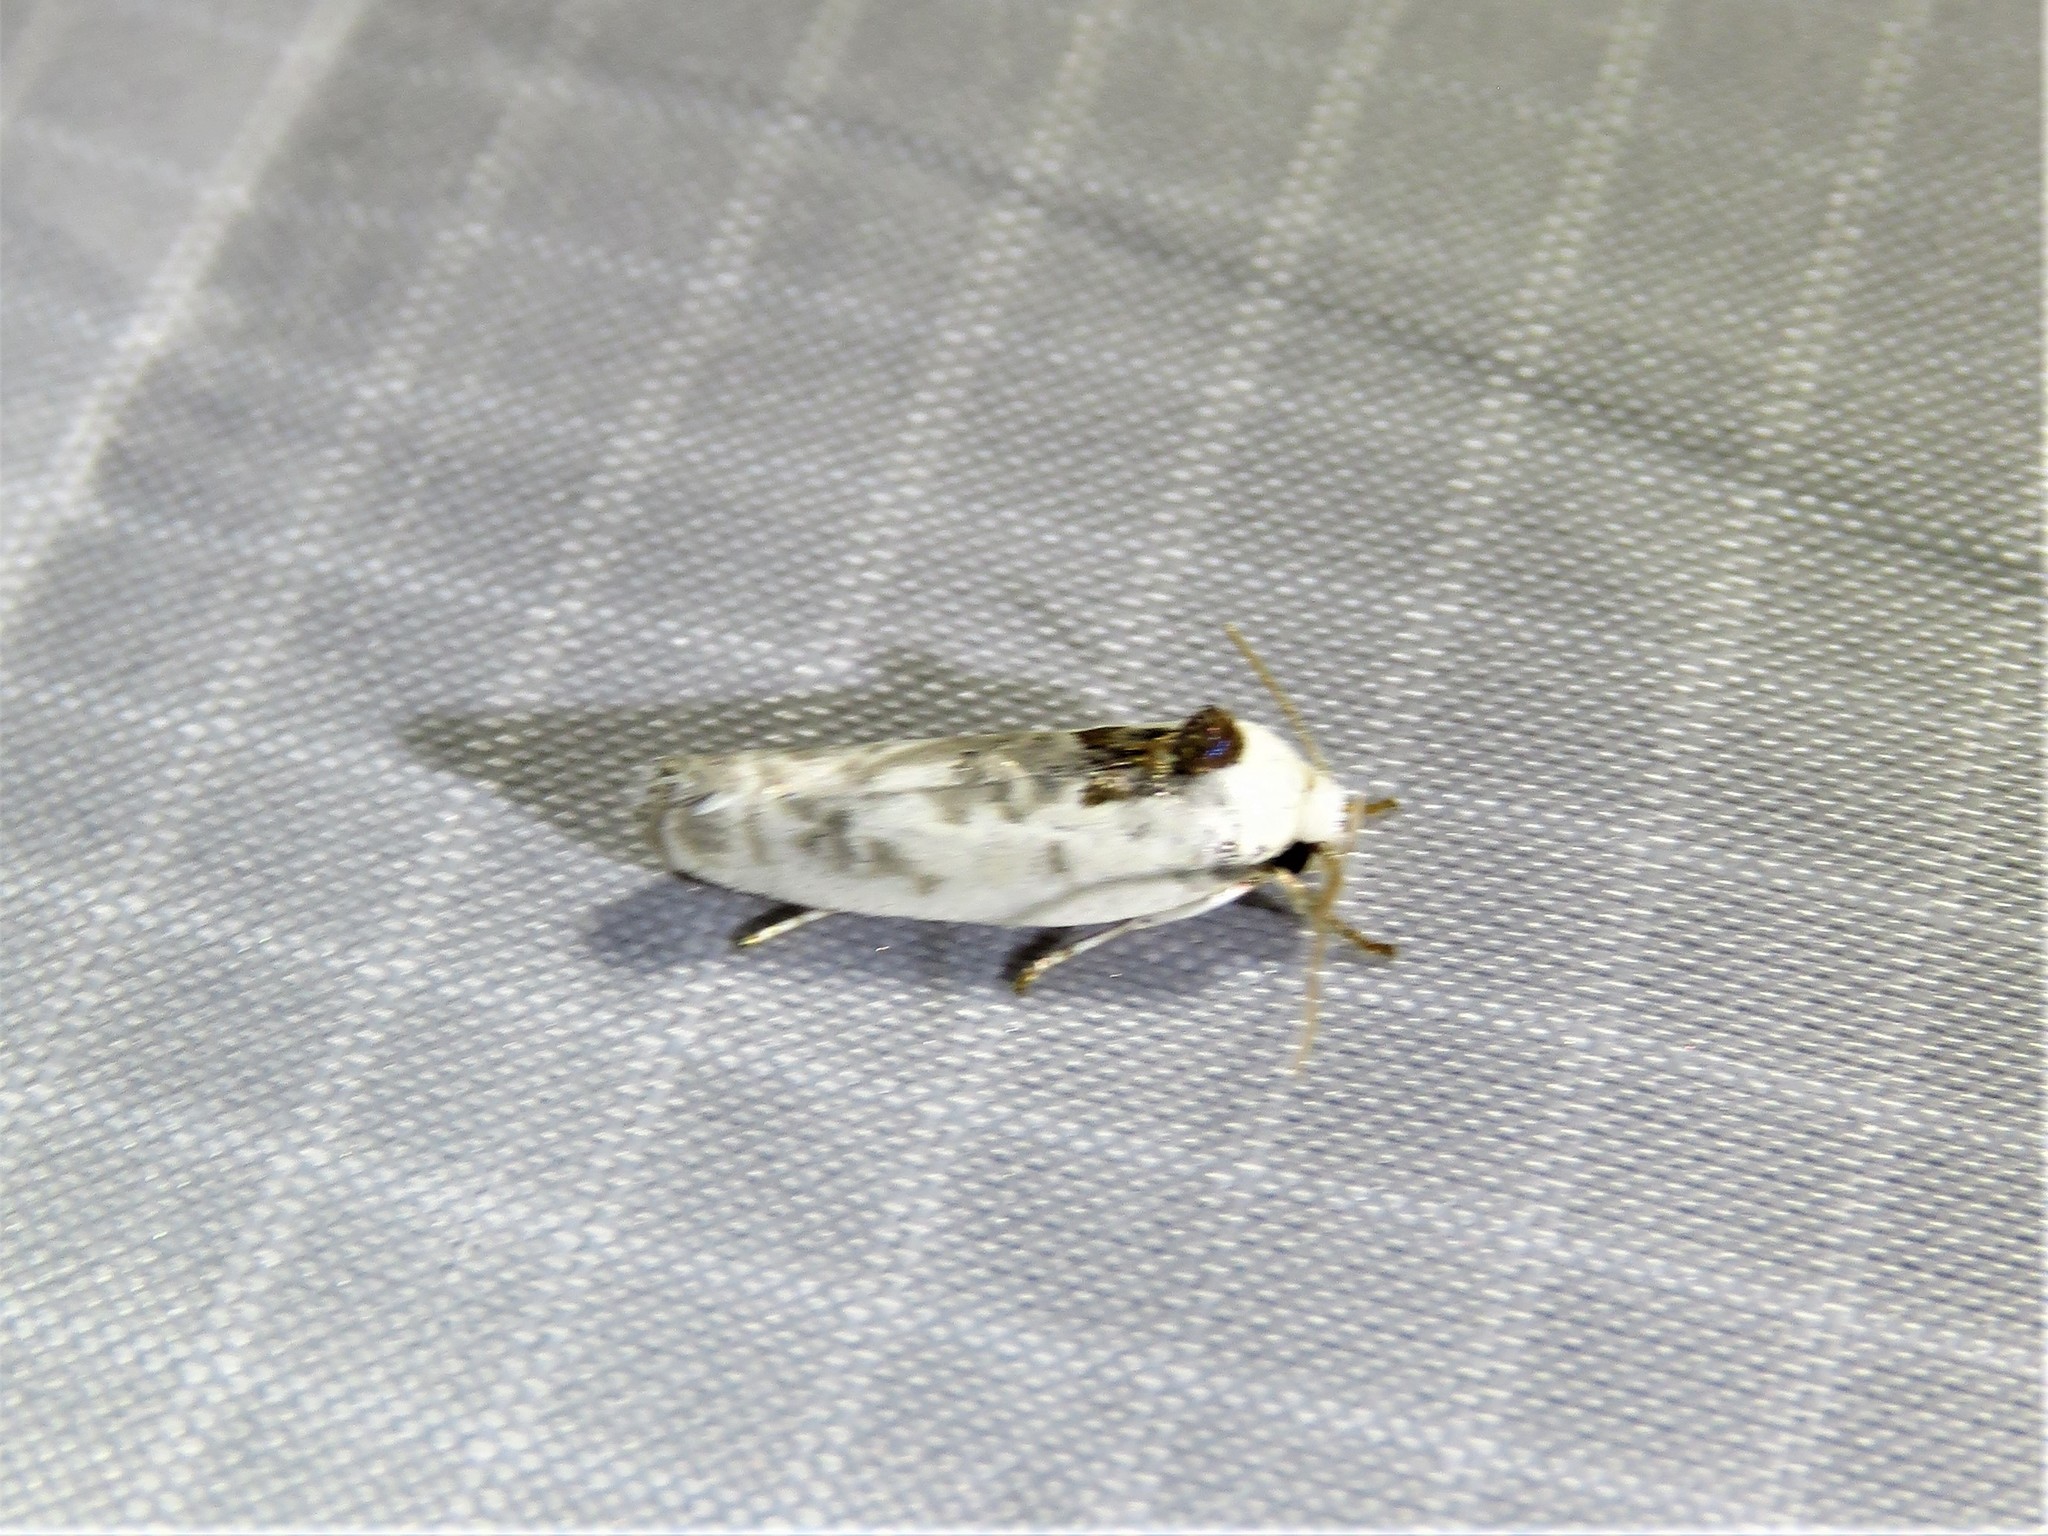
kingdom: Animalia
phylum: Arthropoda
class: Insecta
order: Lepidoptera
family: Depressariidae
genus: Antaeotricha
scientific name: Antaeotricha leucillana
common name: Pale gray bird-dropping moth
